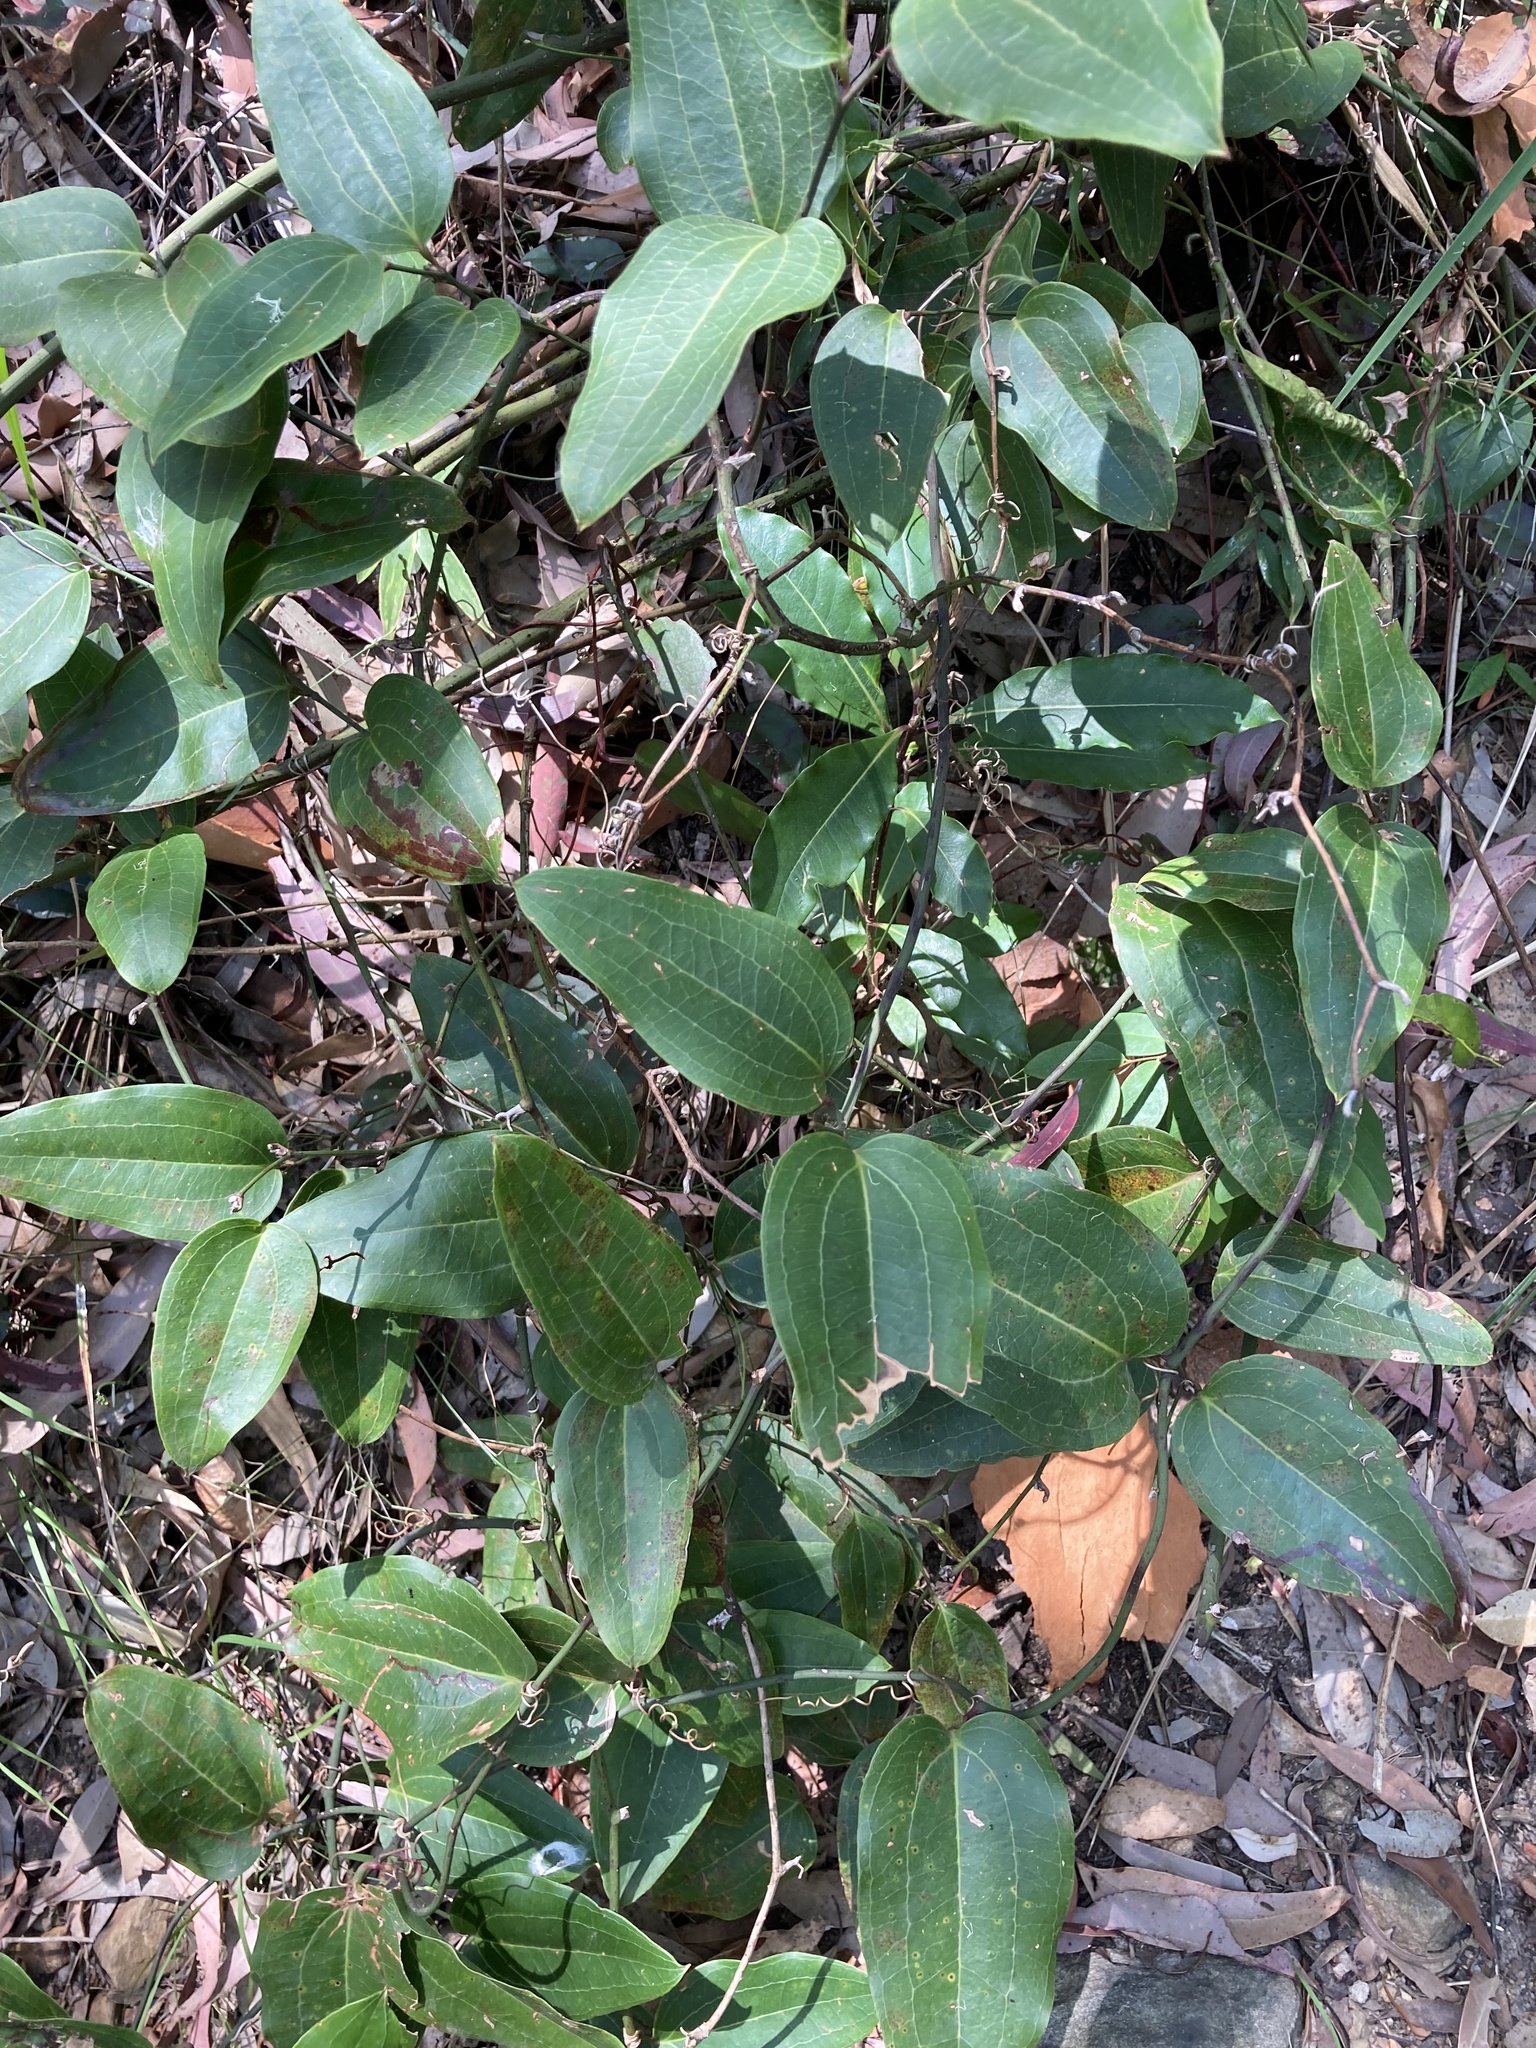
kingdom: Plantae
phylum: Tracheophyta
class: Liliopsida
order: Liliales
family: Smilacaceae
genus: Smilax
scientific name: Smilax australis
